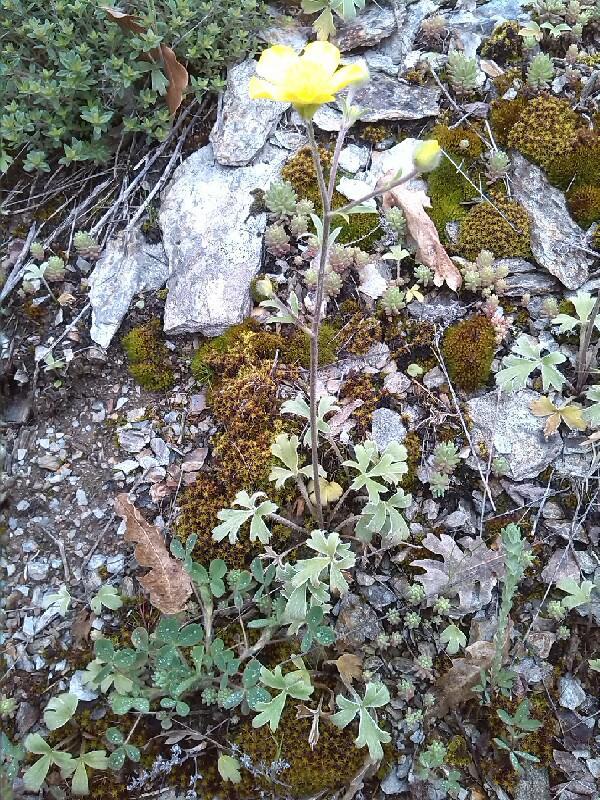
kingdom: Plantae
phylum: Tracheophyta
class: Magnoliopsida
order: Ranunculales
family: Ranunculaceae
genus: Ranunculus
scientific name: Ranunculus psilostachys
